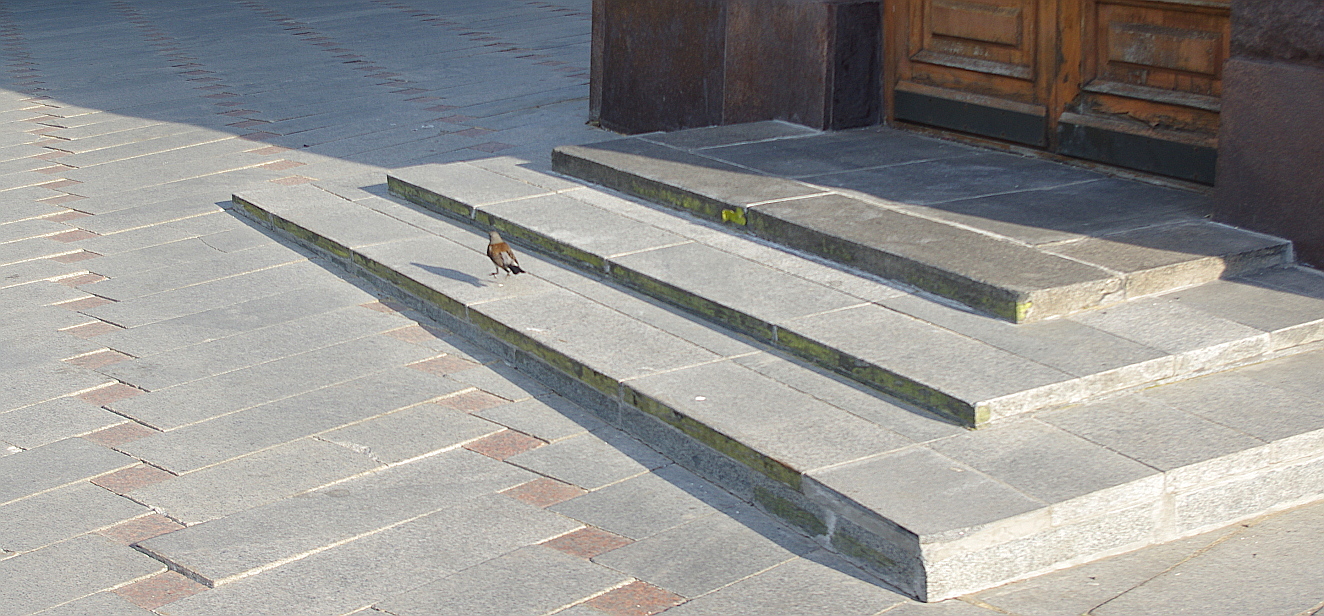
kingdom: Animalia
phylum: Chordata
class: Aves
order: Passeriformes
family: Turdidae
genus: Turdus
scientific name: Turdus pilaris
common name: Fieldfare
